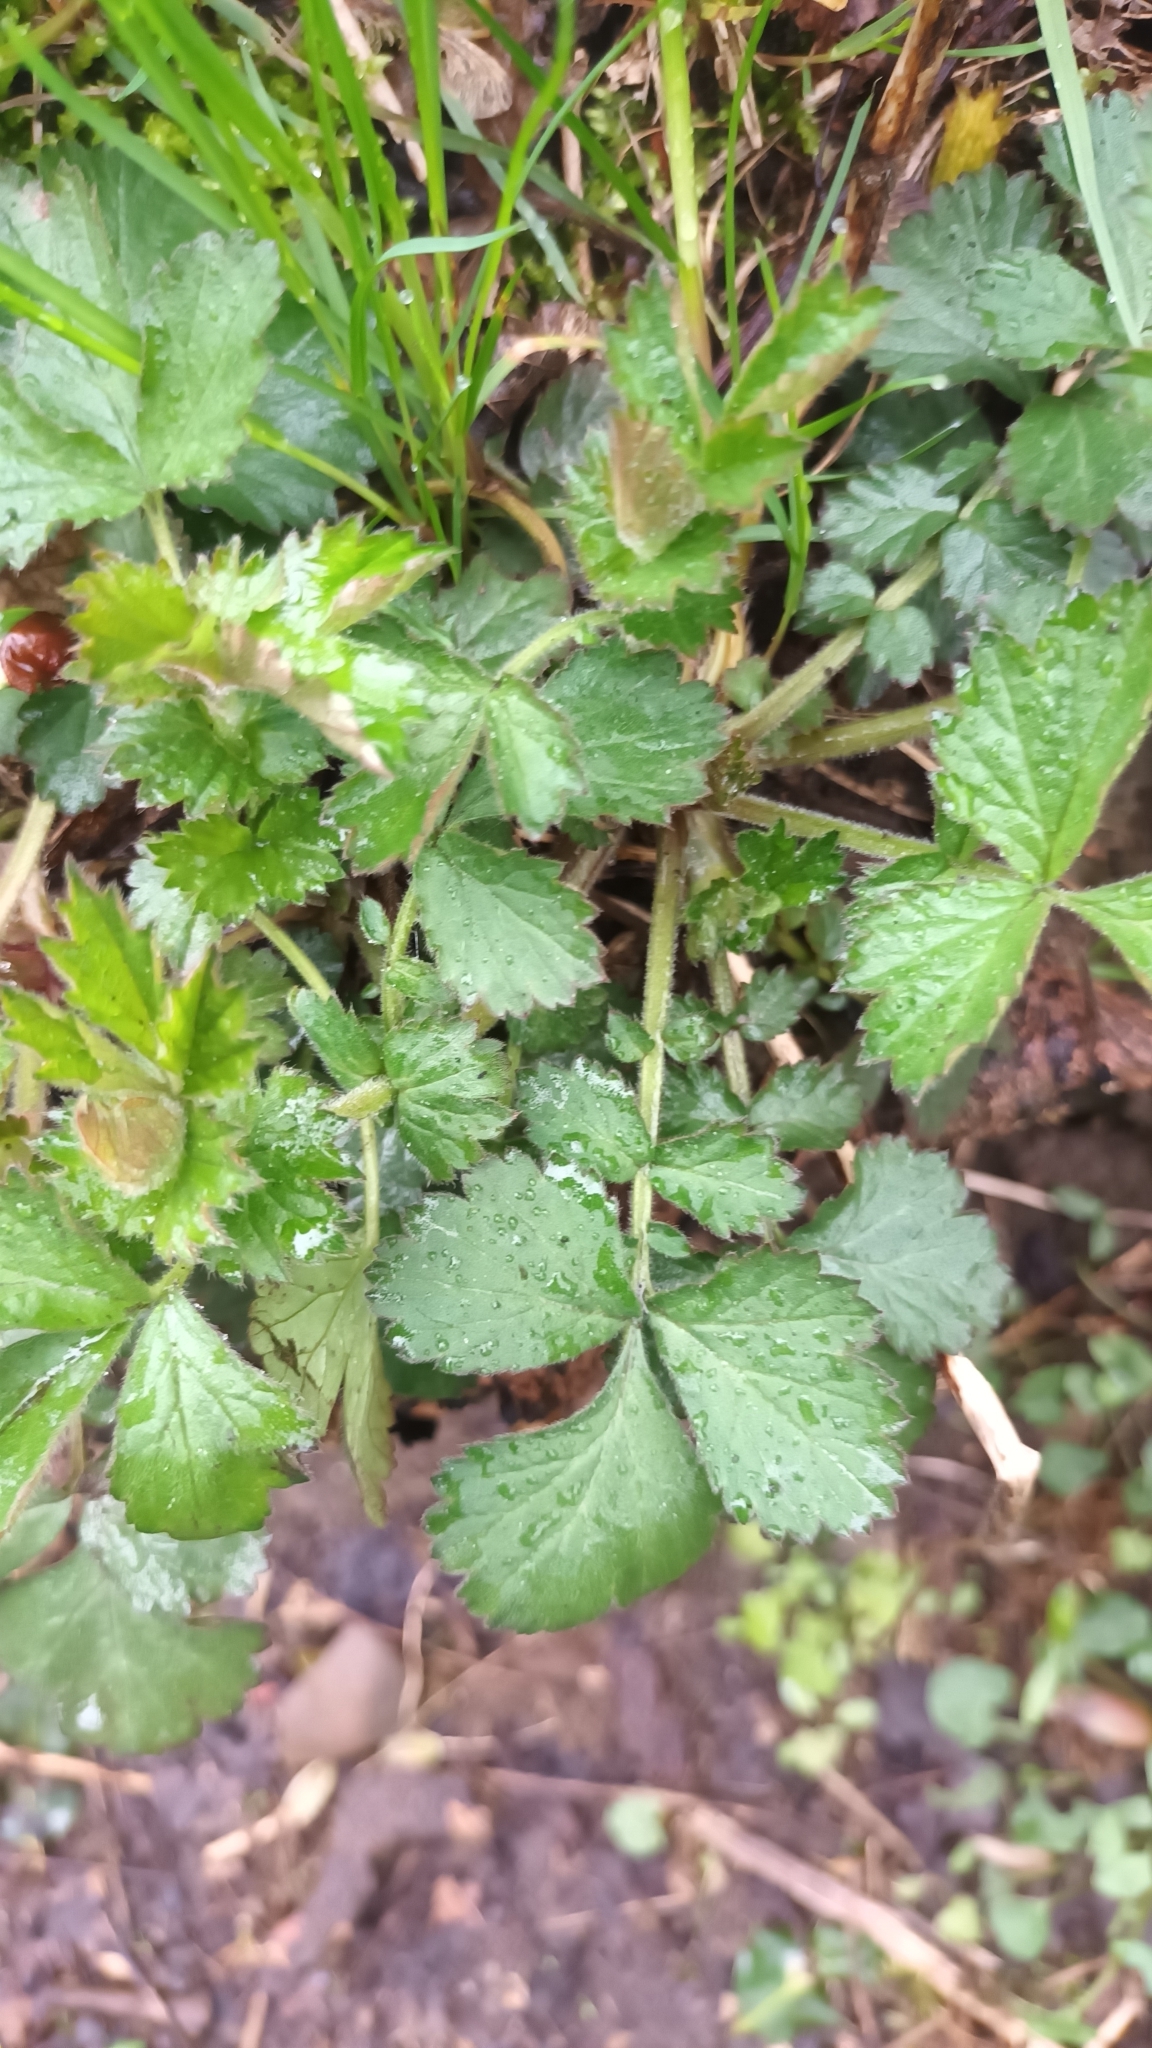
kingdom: Plantae
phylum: Tracheophyta
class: Magnoliopsida
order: Rosales
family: Rosaceae
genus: Geum
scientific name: Geum urbanum
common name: Wood avens
